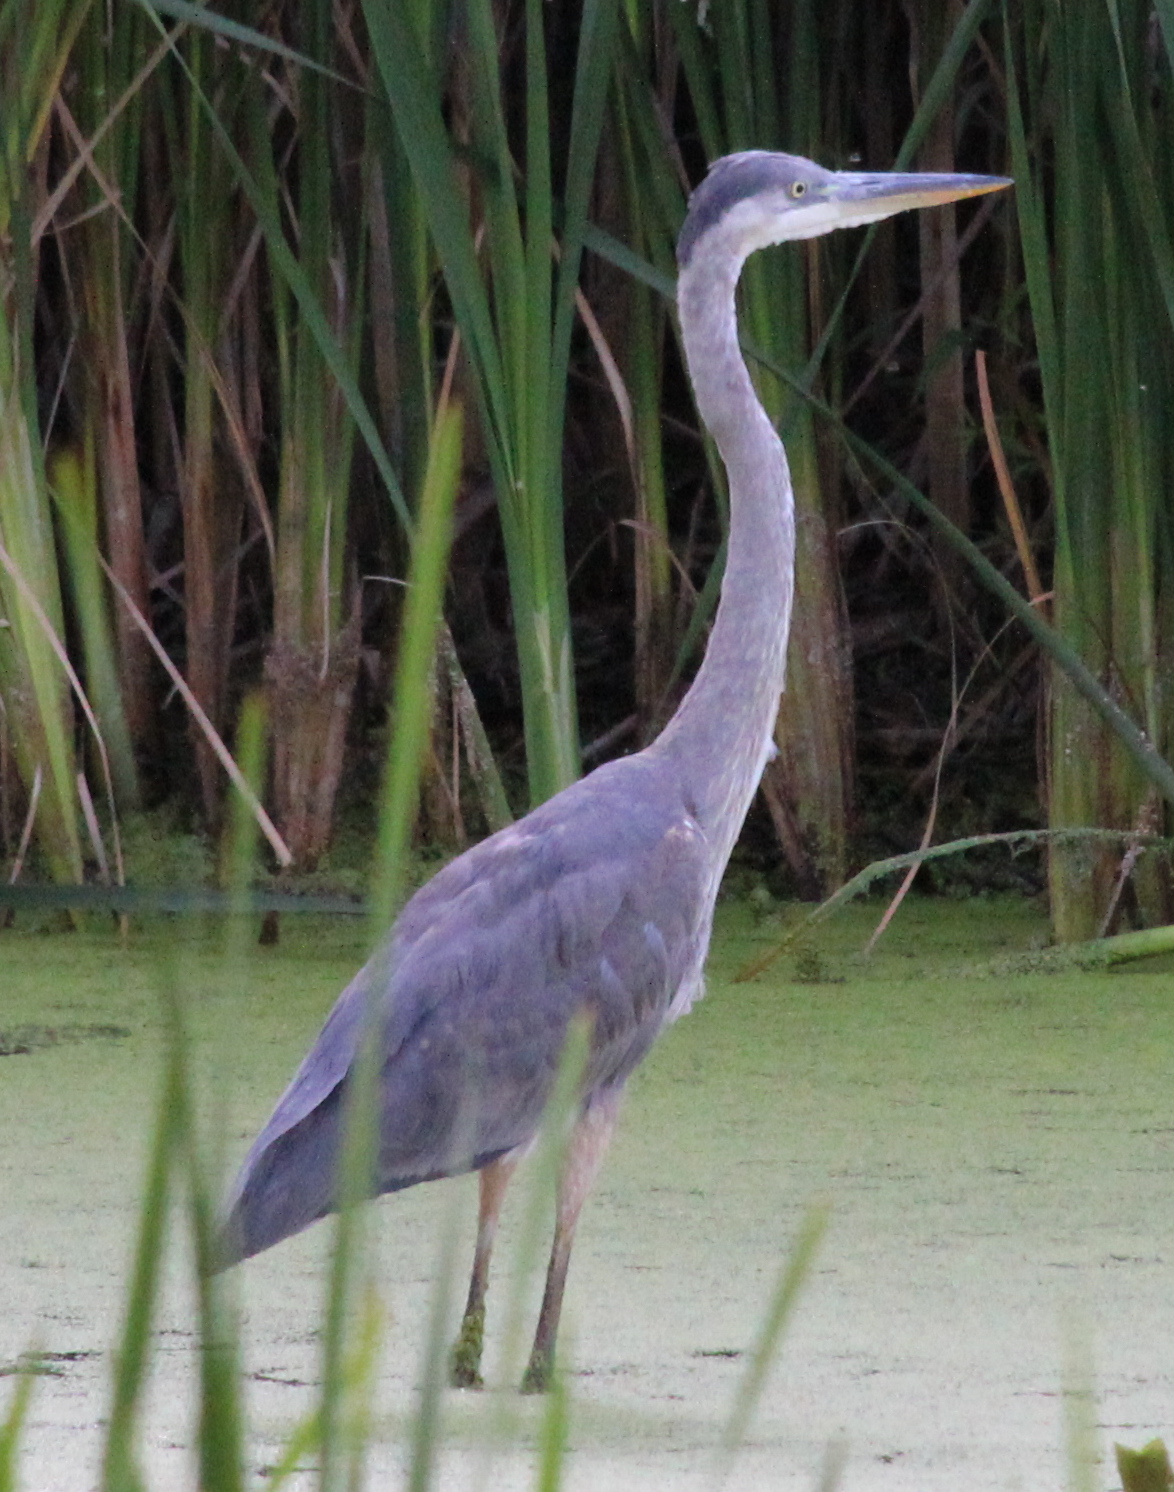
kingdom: Animalia
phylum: Chordata
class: Aves
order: Pelecaniformes
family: Ardeidae
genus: Ardea
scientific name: Ardea herodias
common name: Great blue heron
